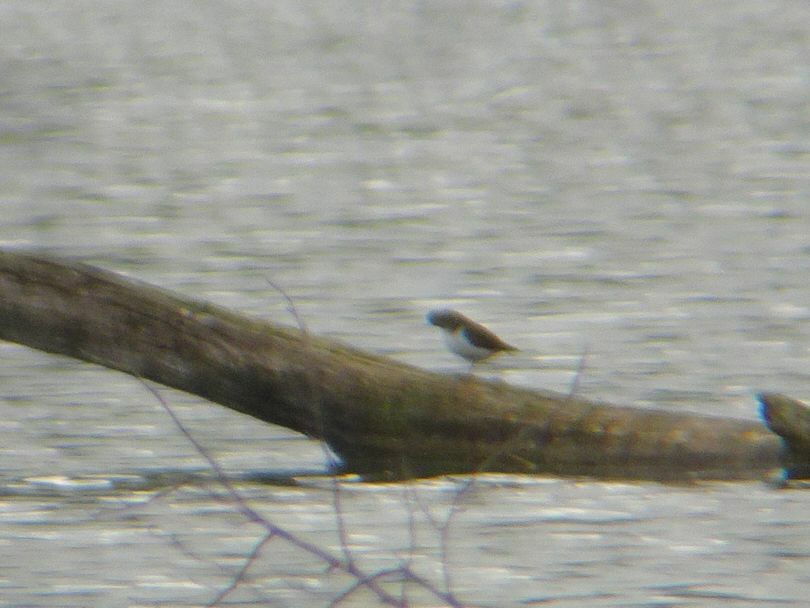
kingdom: Animalia
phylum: Chordata
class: Aves
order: Charadriiformes
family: Scolopacidae
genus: Actitis
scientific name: Actitis hypoleucos
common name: Common sandpiper
